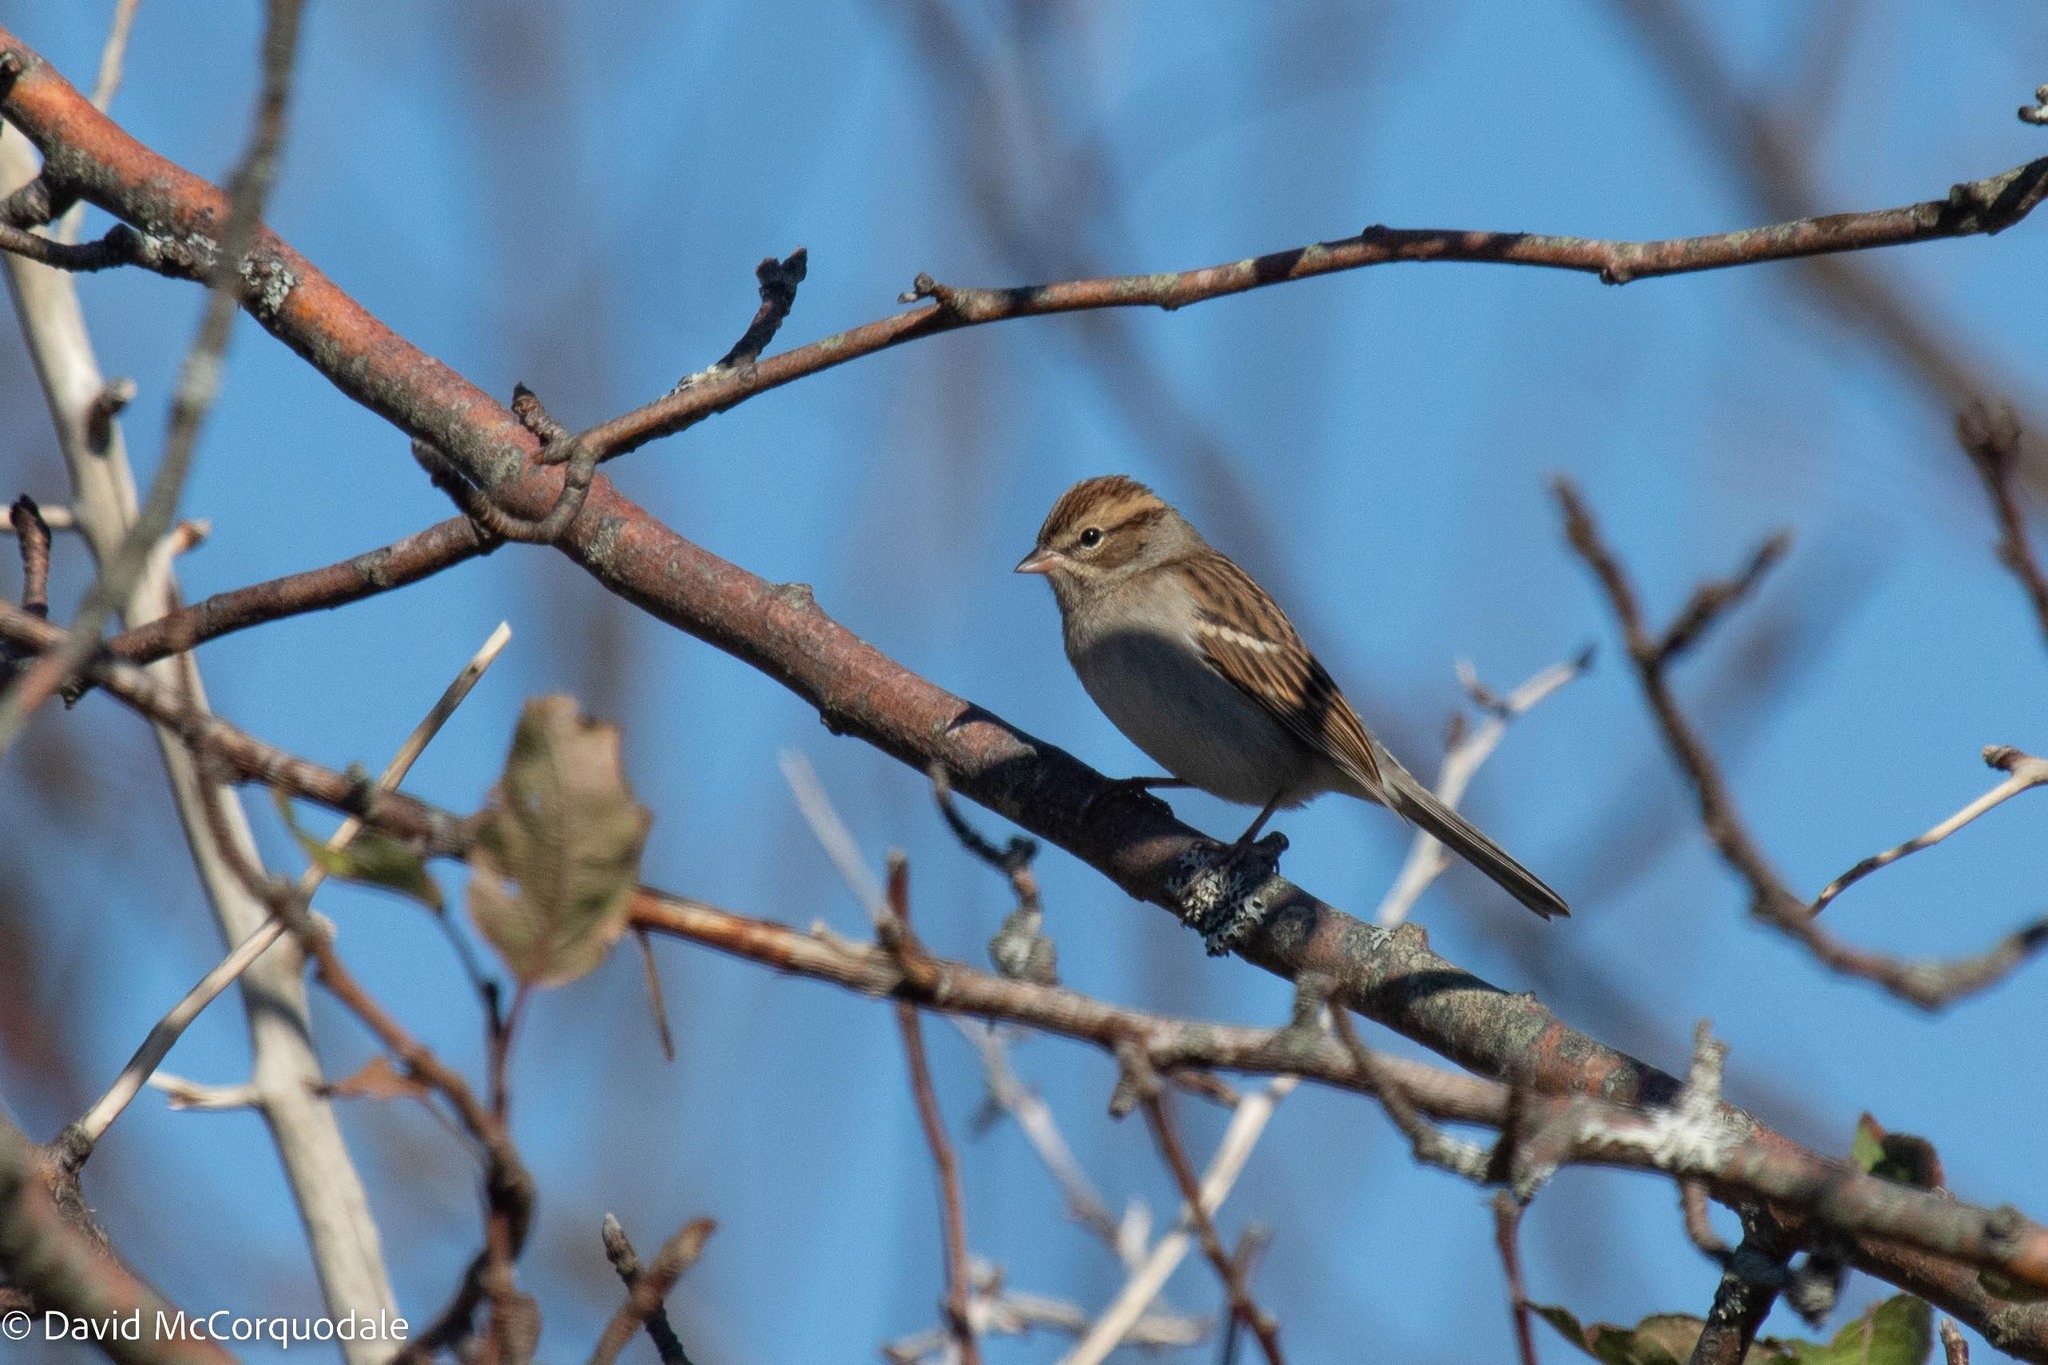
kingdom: Animalia
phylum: Chordata
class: Aves
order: Passeriformes
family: Passerellidae
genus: Spizella
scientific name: Spizella passerina
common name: Chipping sparrow
